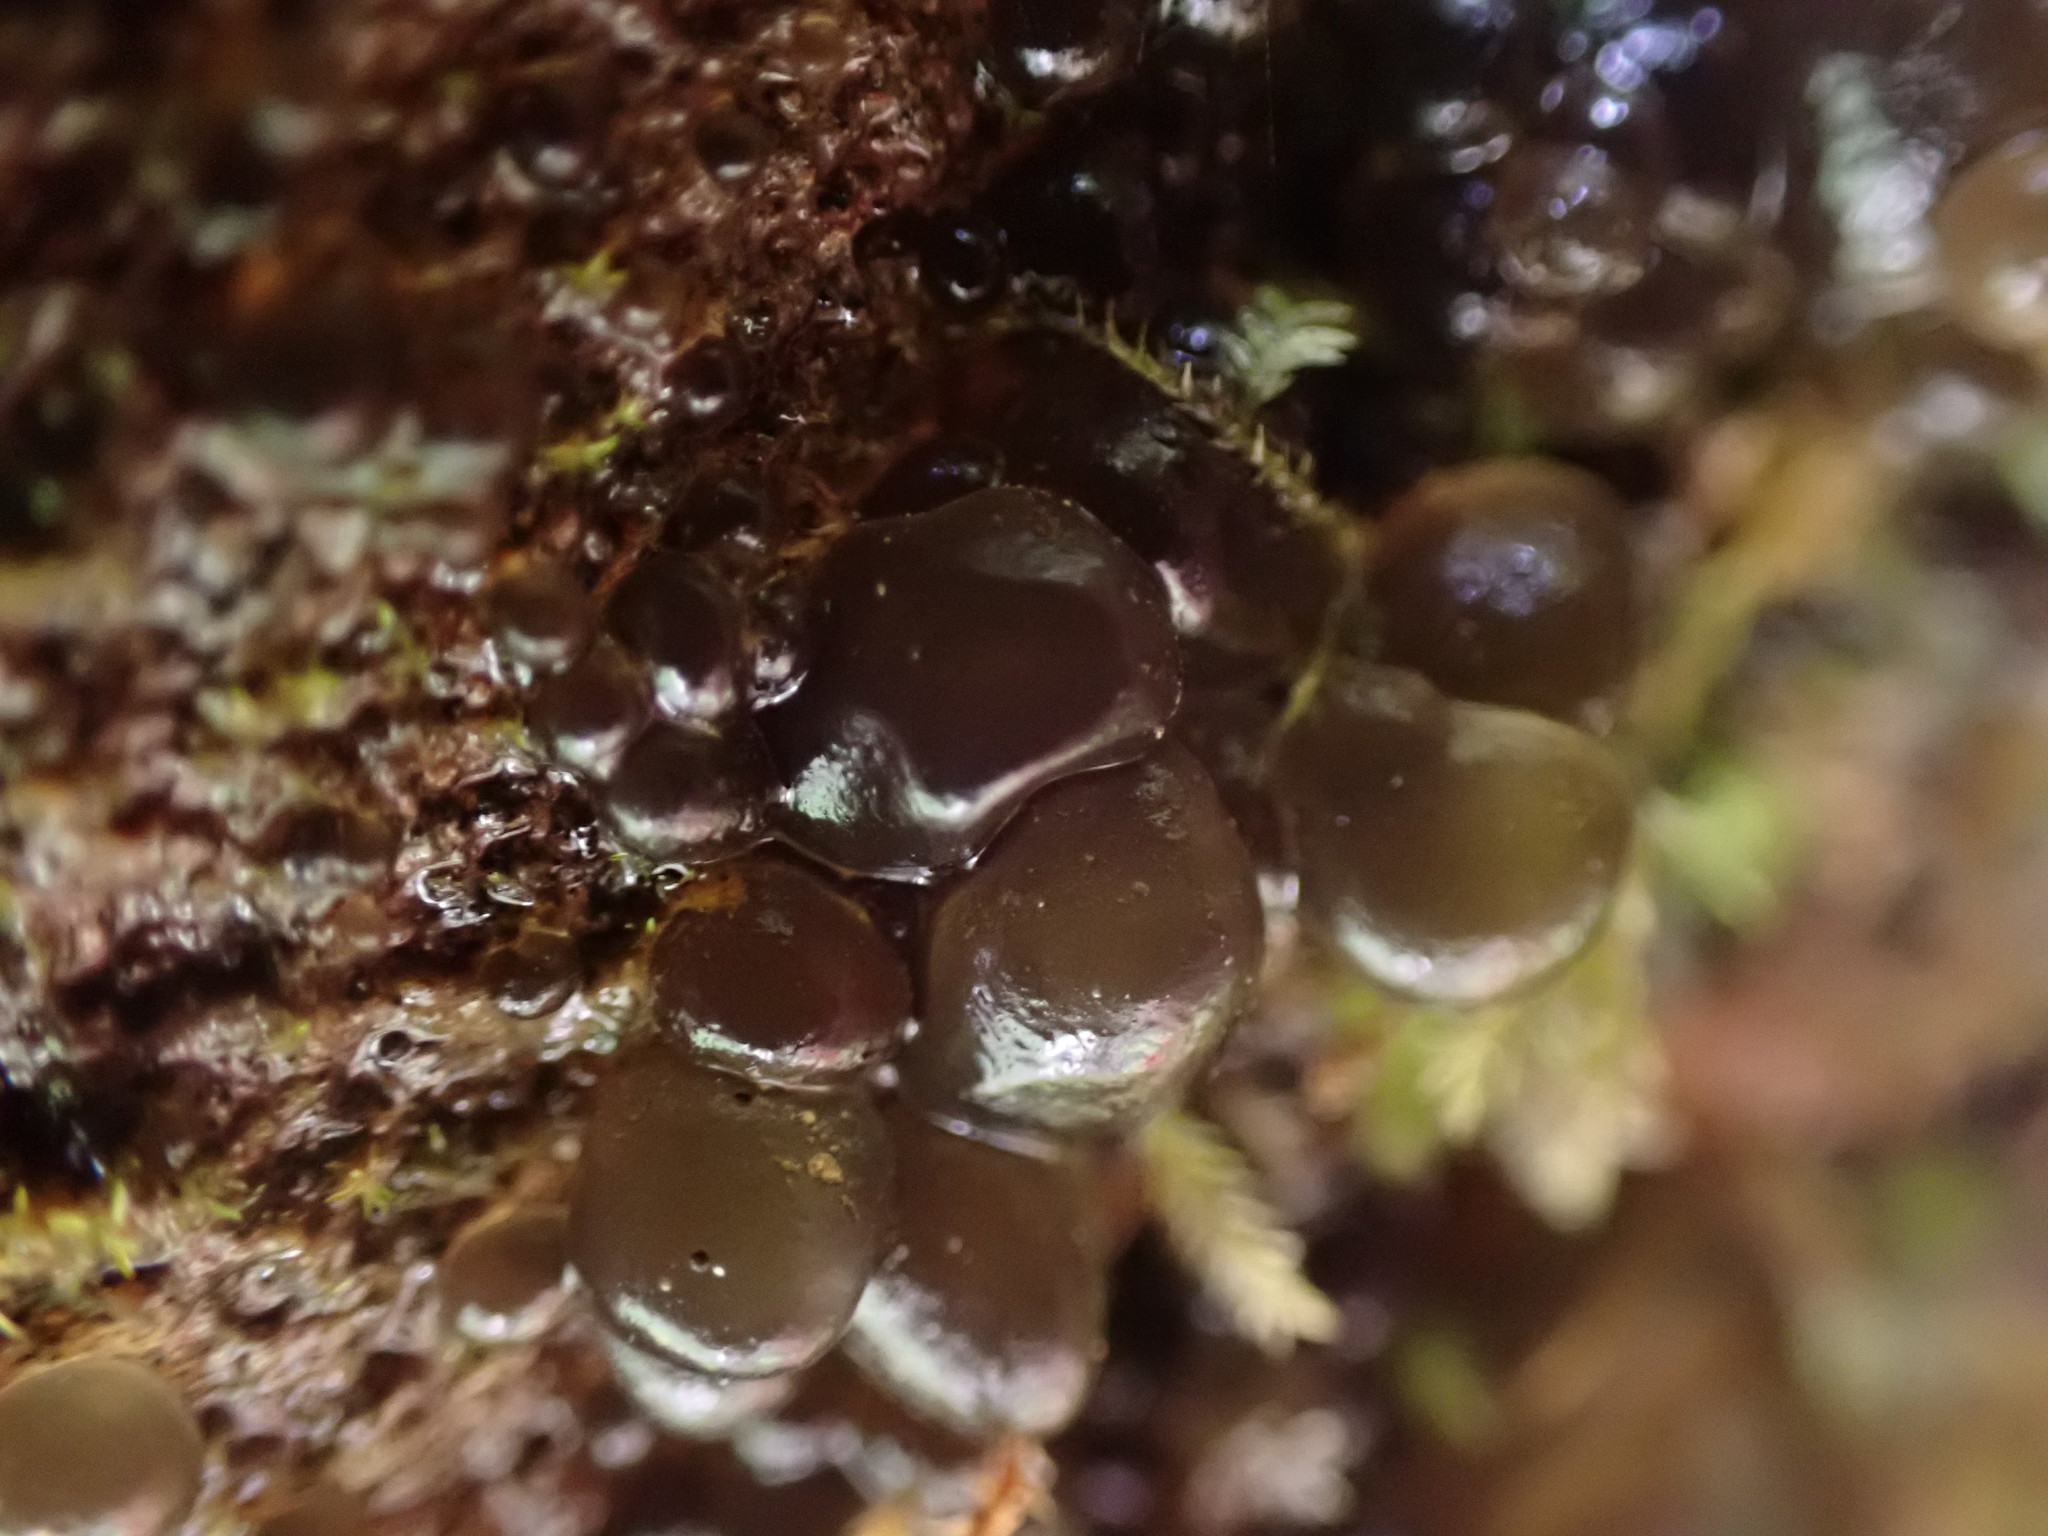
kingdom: Bacteria
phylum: Cyanobacteria
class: Cyanobacteriia
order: Cyanobacteriales
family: Nostocaceae
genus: Nostoc
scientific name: Nostoc
